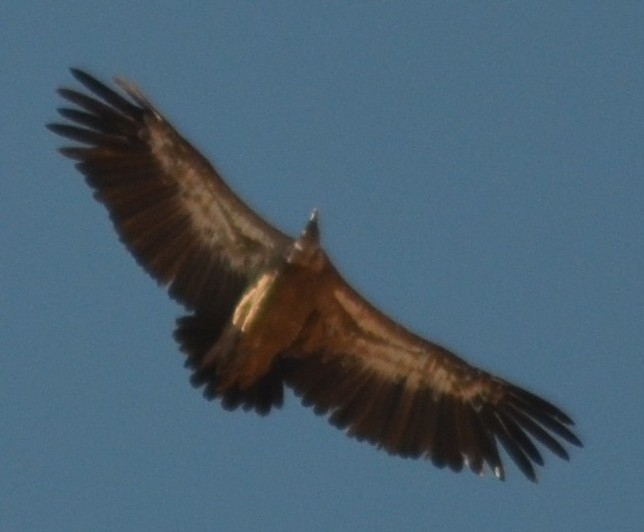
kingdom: Animalia
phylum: Chordata
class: Aves
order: Accipitriformes
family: Accipitridae
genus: Gyps
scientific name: Gyps fulvus
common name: Griffon vulture
